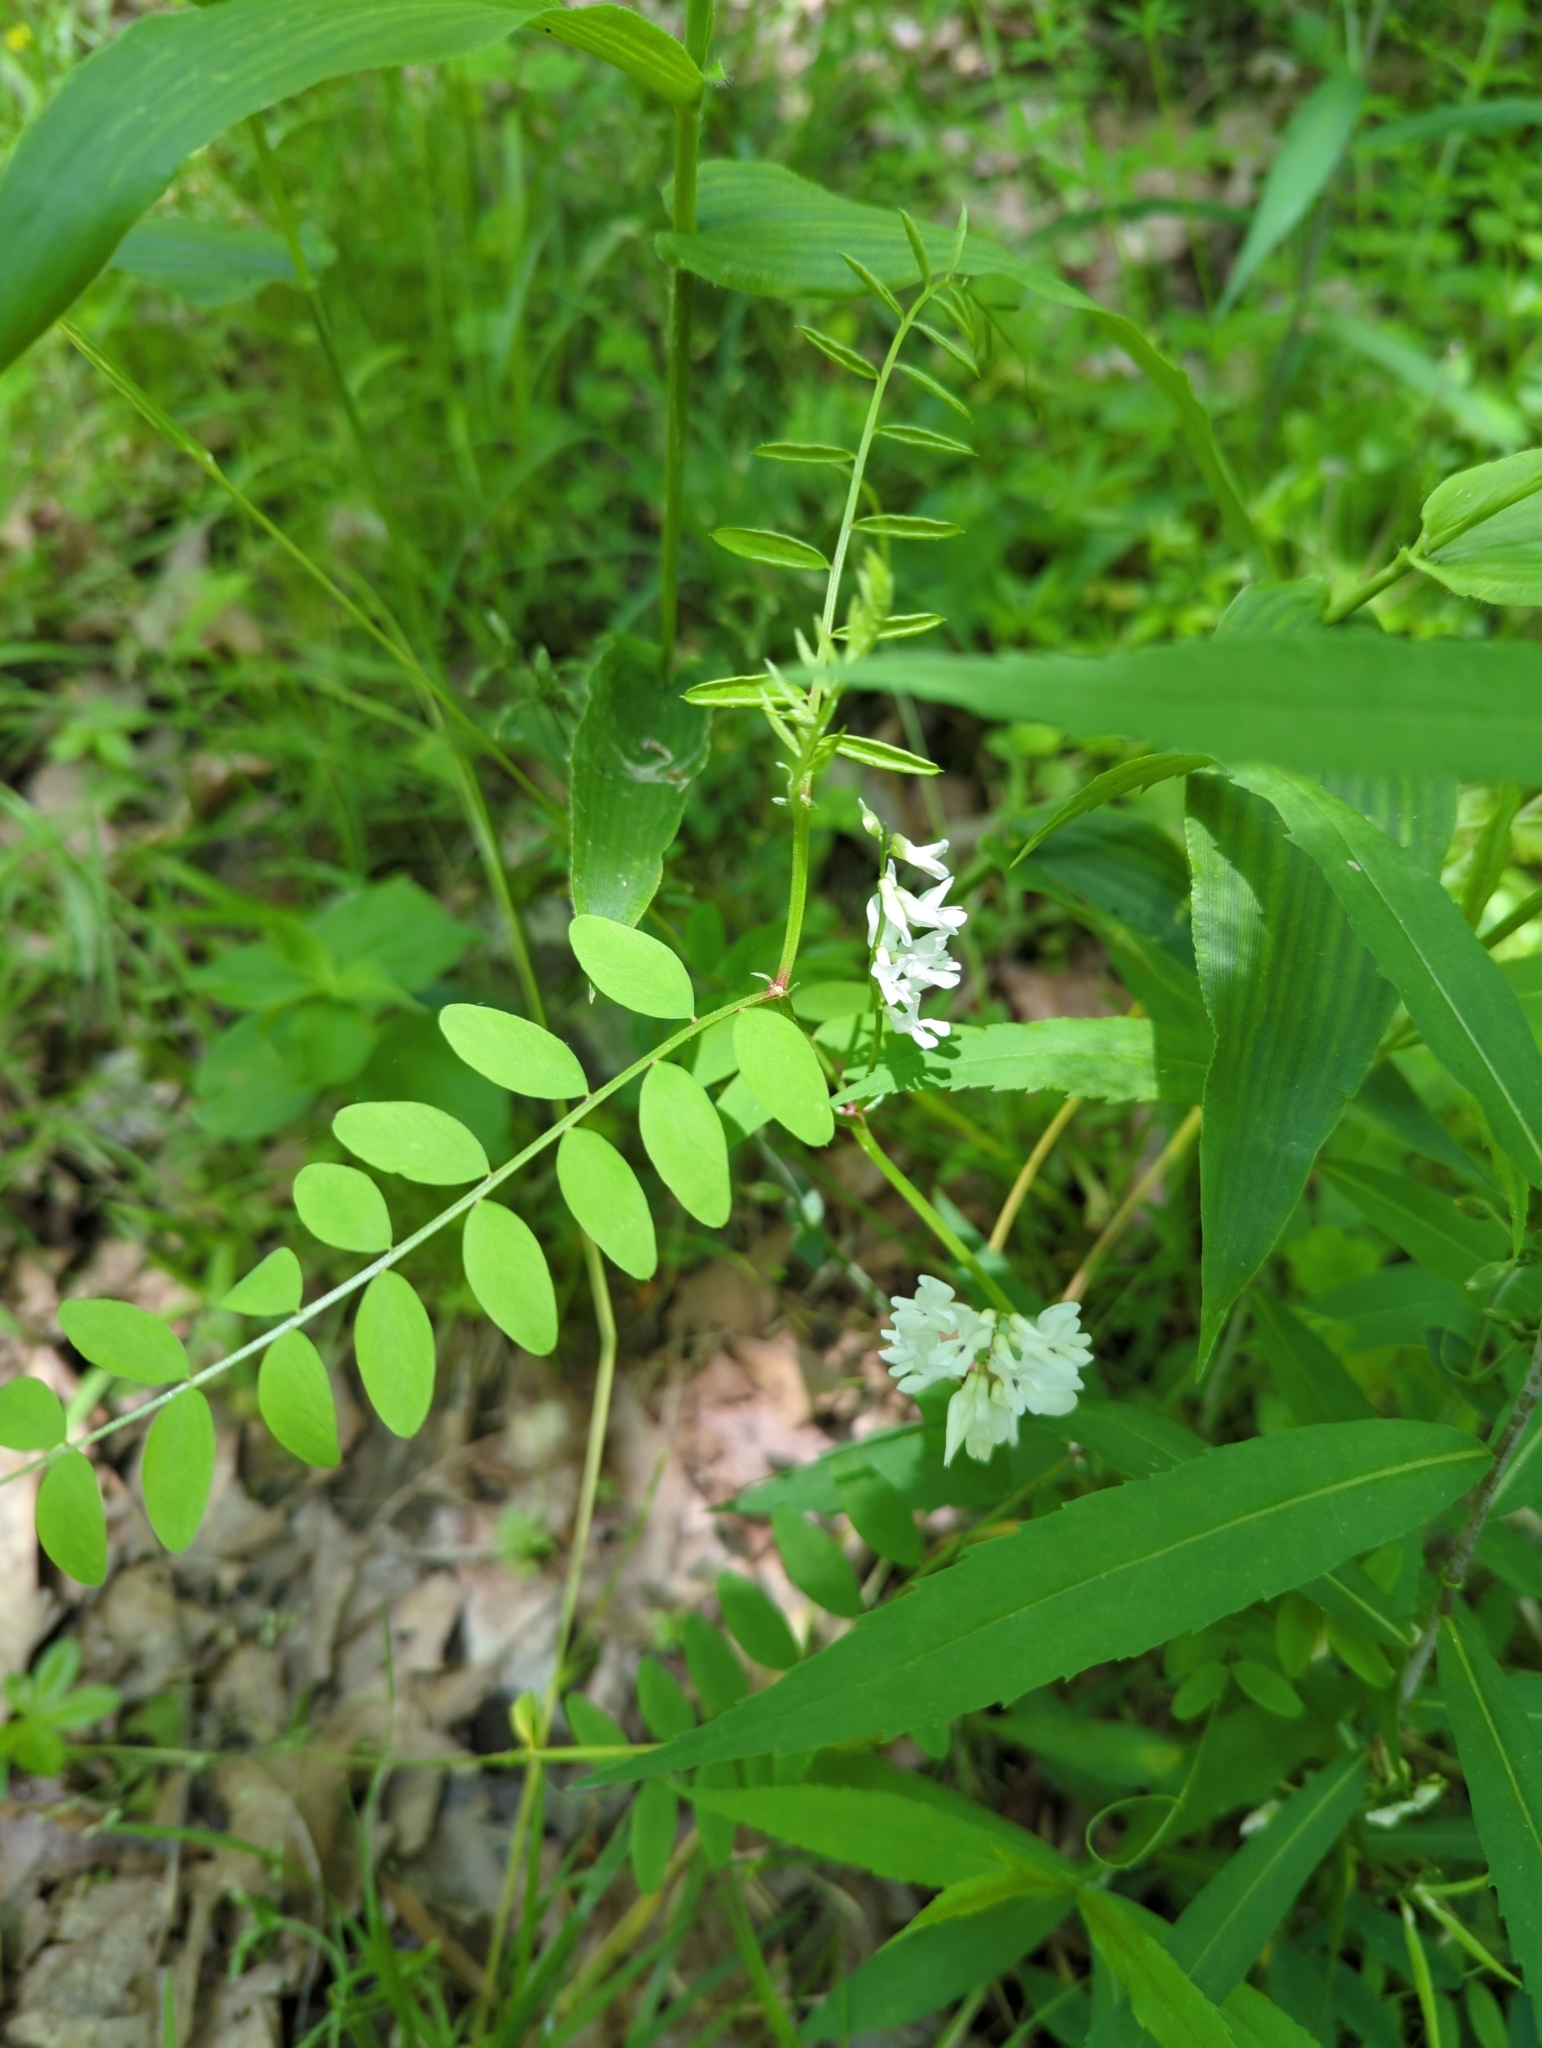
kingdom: Plantae
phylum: Tracheophyta
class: Magnoliopsida
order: Fabales
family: Fabaceae
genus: Vicia
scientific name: Vicia caroliniana
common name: Carolina vetch
